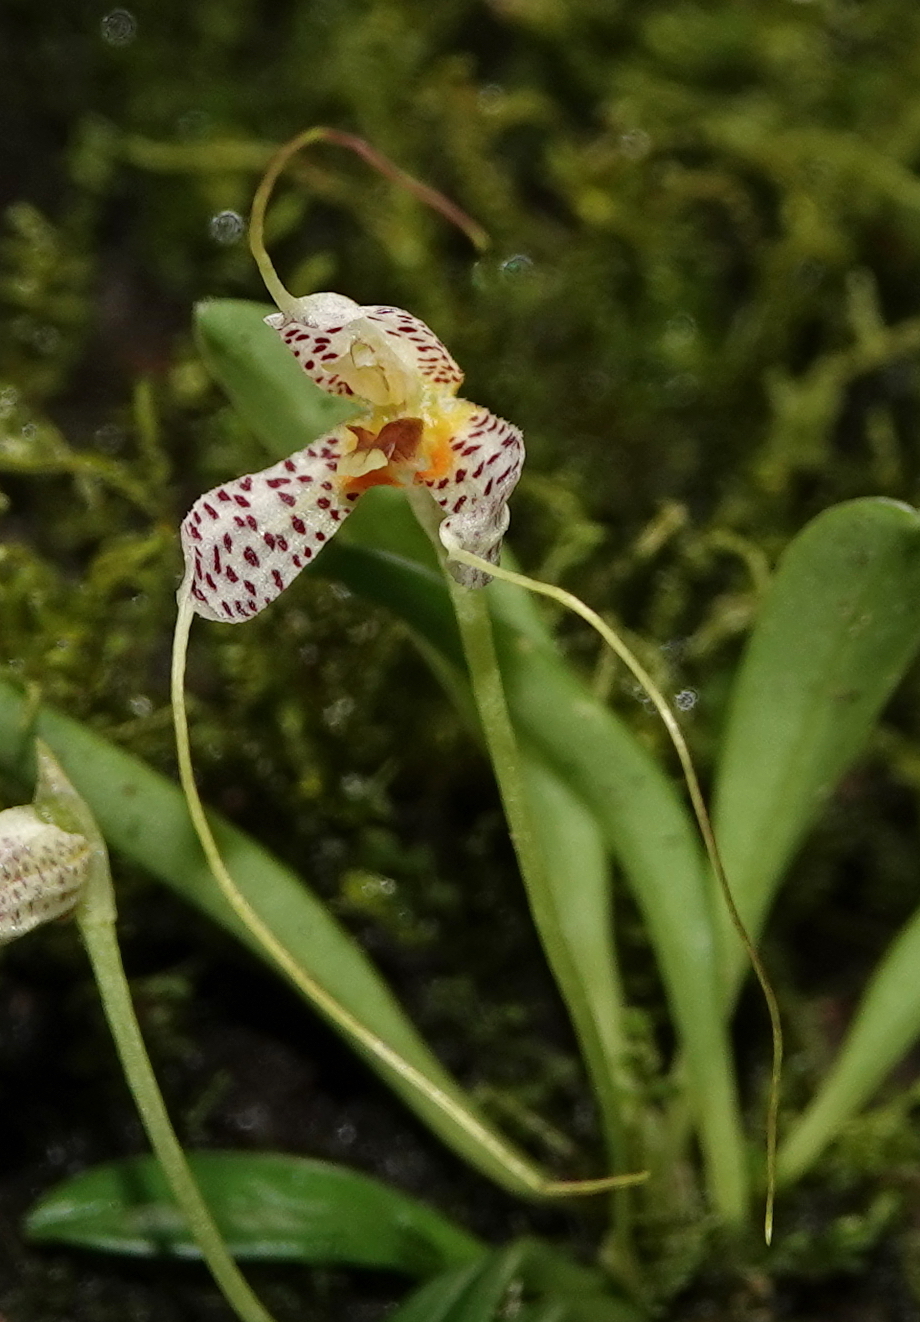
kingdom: Plantae
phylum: Tracheophyta
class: Liliopsida
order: Asparagales
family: Orchidaceae
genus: Masdevallia
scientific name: Masdevallia picturata
